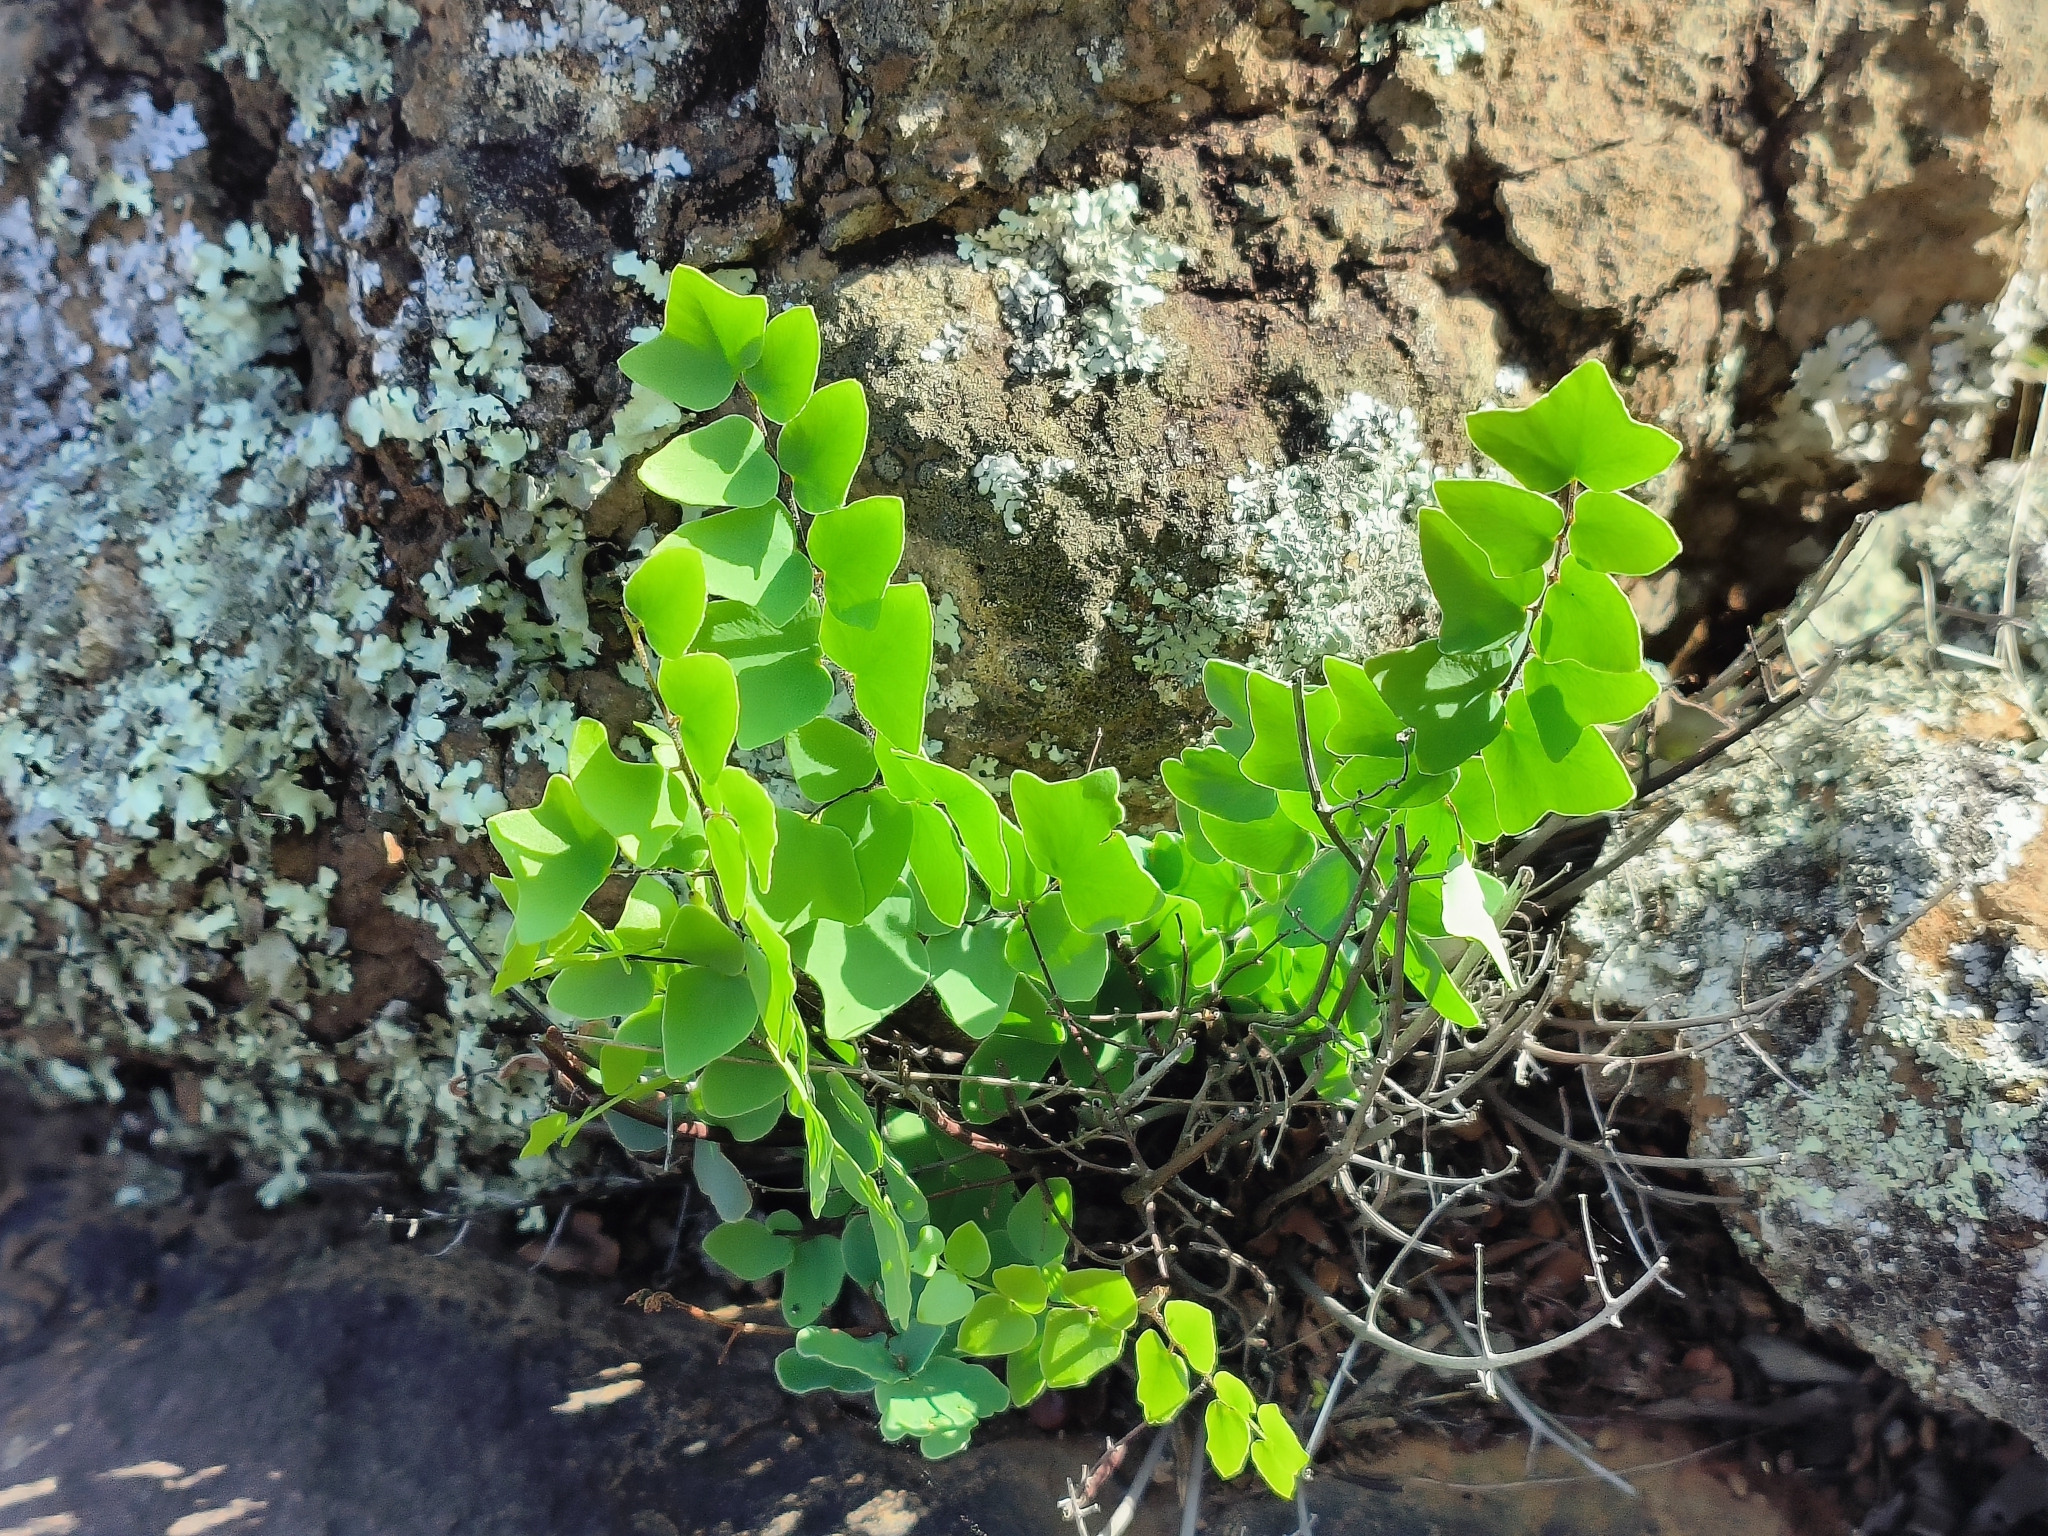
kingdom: Plantae
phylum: Tracheophyta
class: Polypodiopsida
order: Polypodiales
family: Pteridaceae
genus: Pellaea
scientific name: Pellaea calomelanos
